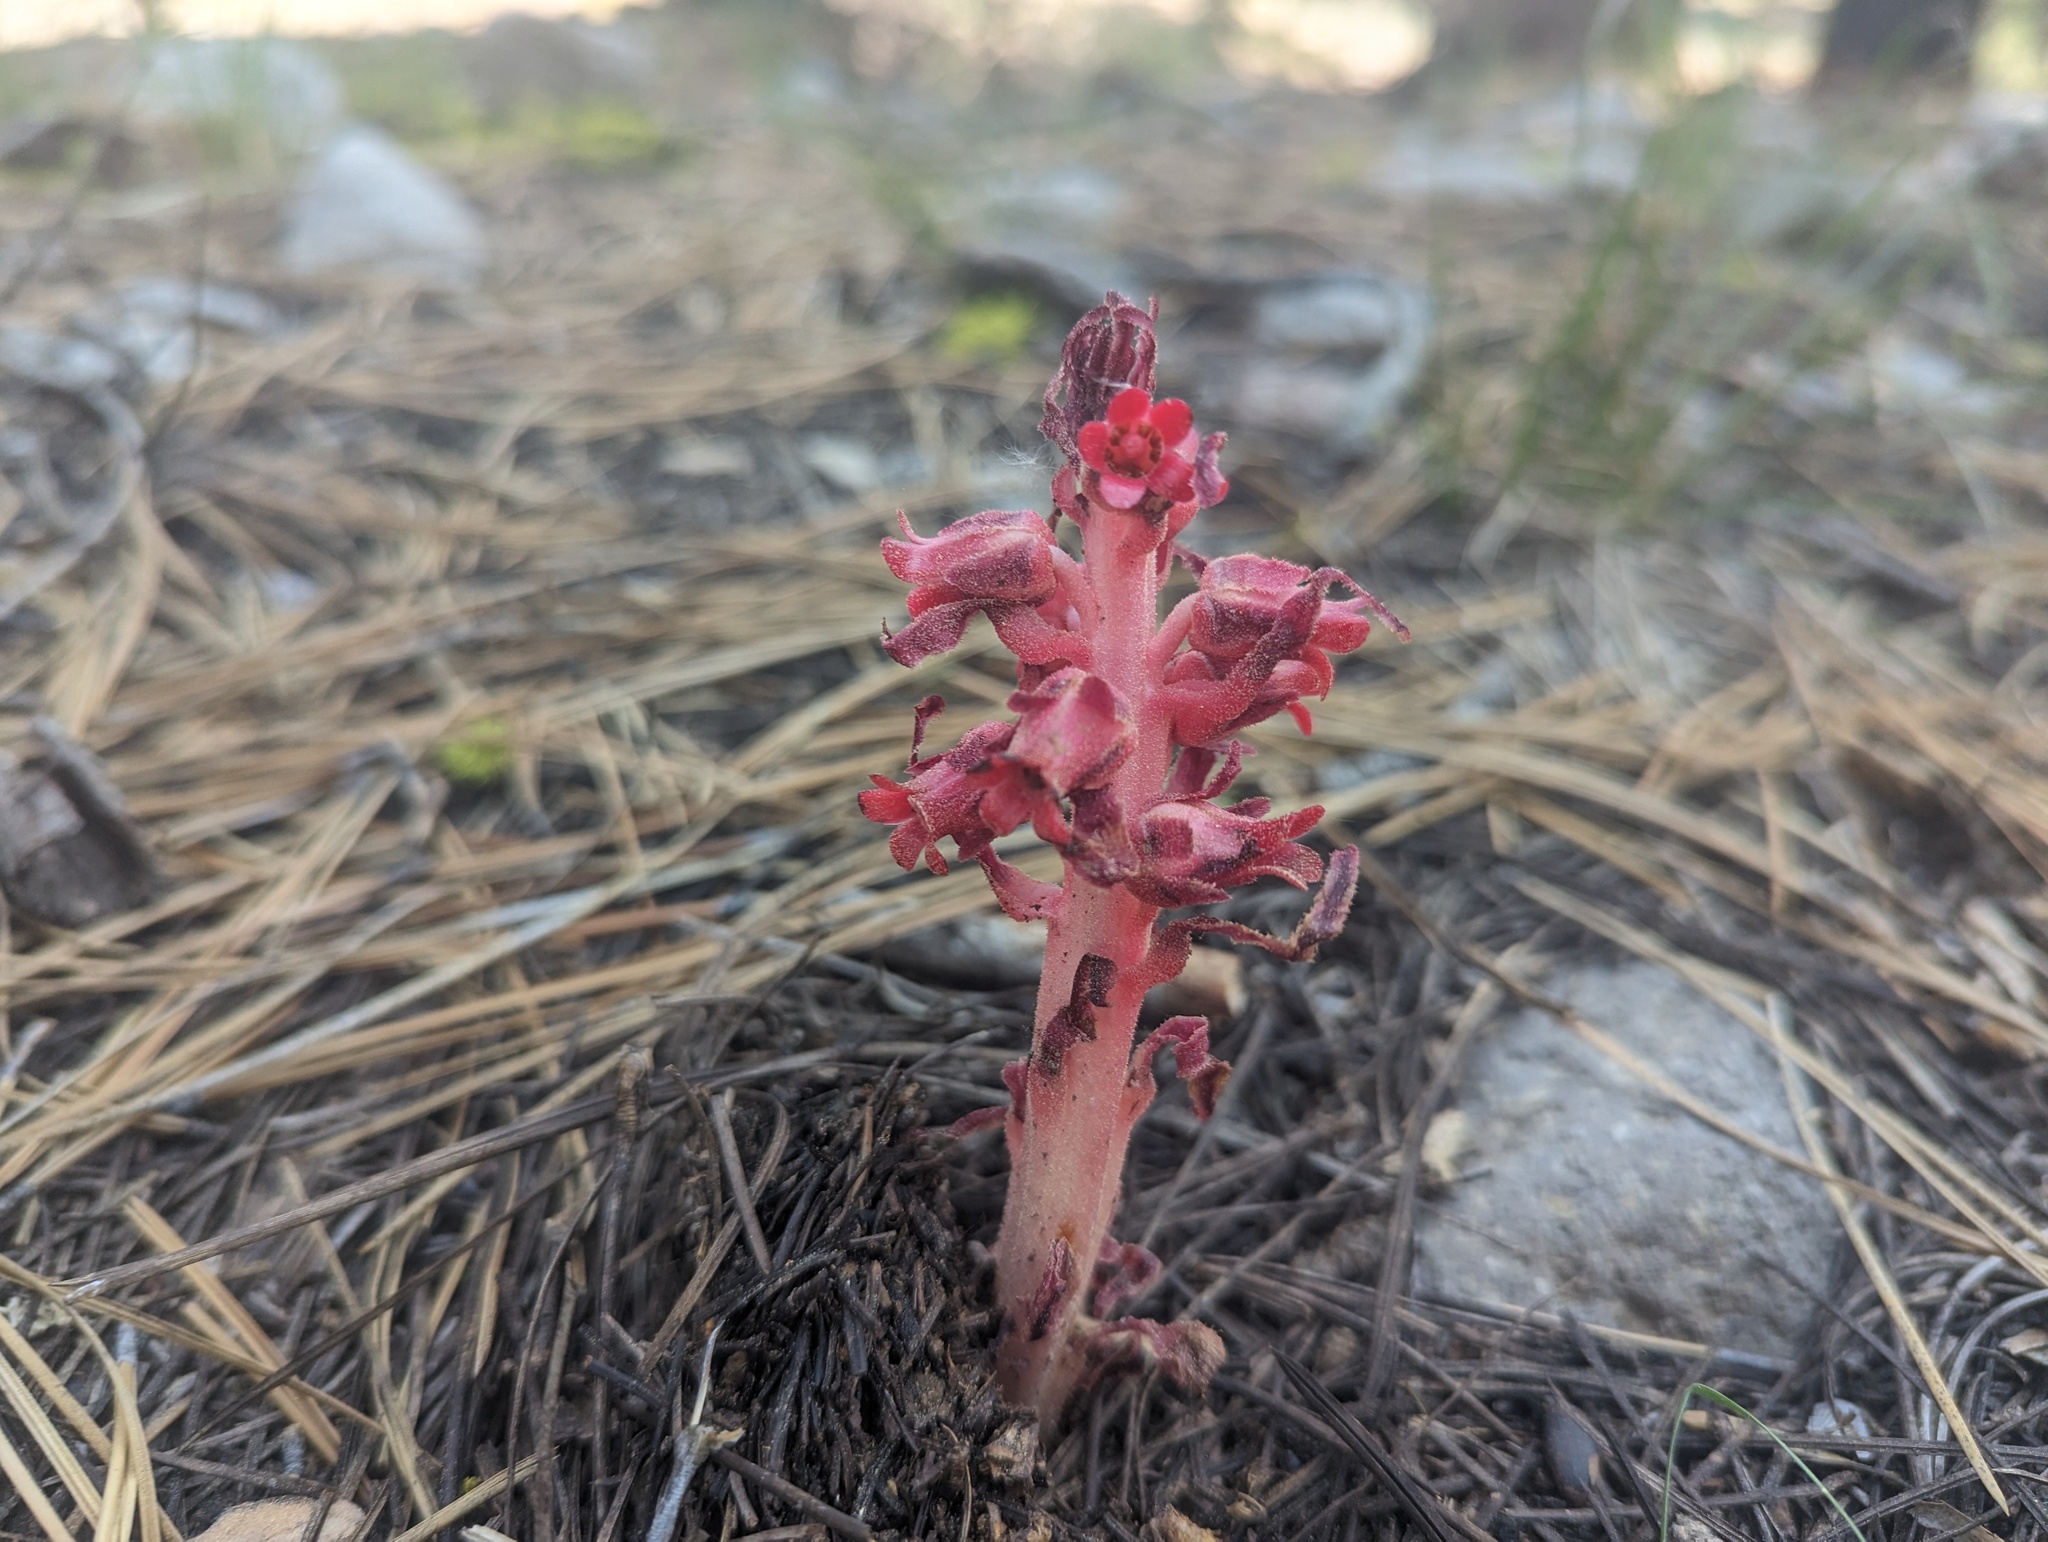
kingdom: Plantae
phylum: Tracheophyta
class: Magnoliopsida
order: Ericales
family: Ericaceae
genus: Sarcodes
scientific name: Sarcodes sanguinea
